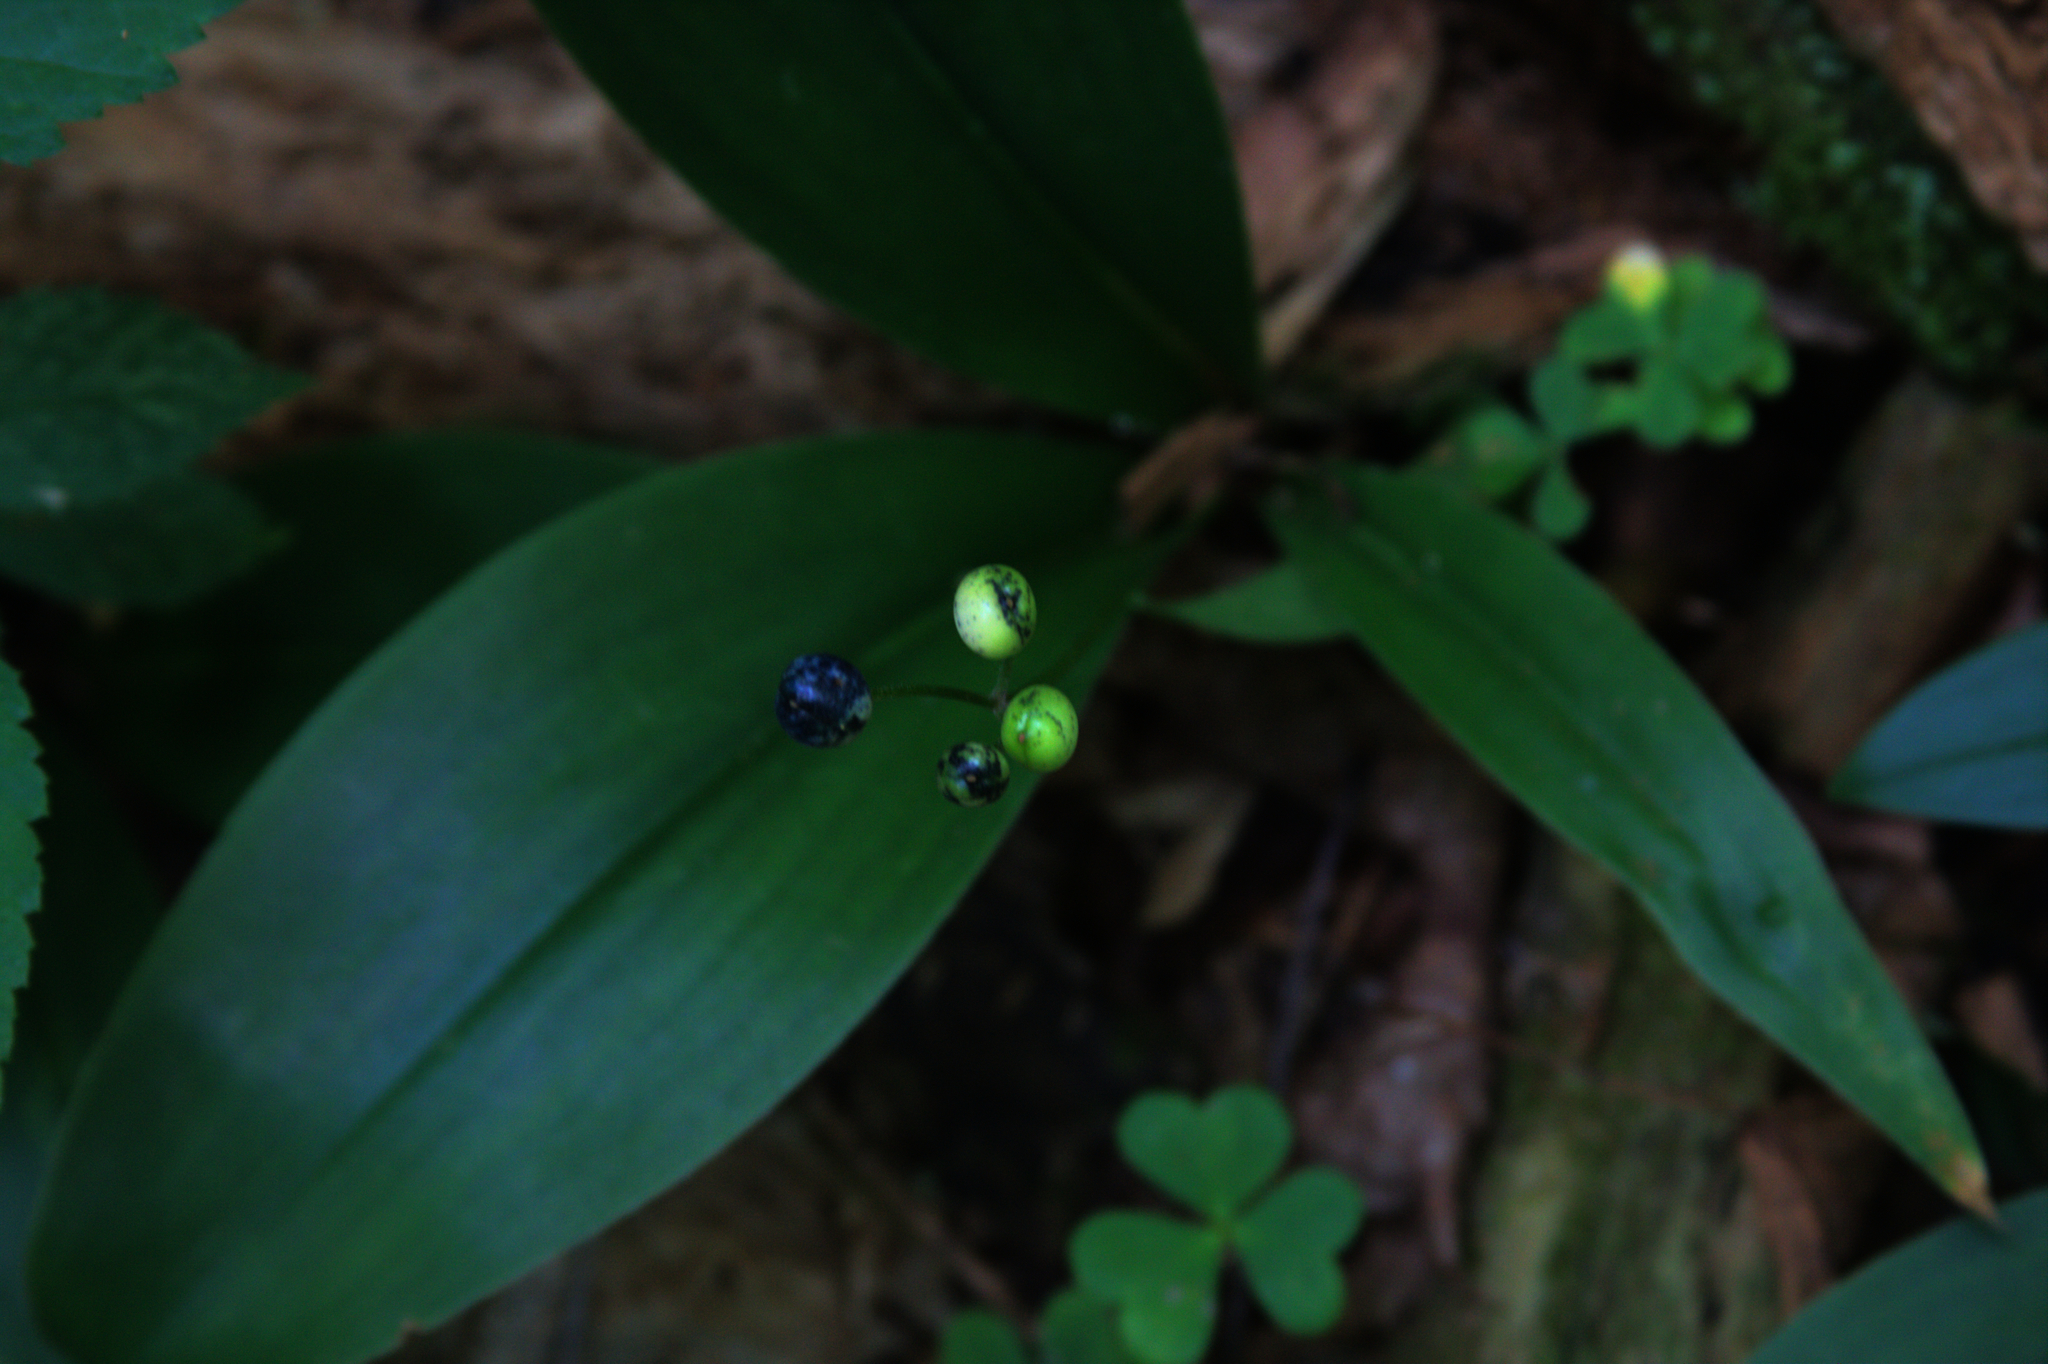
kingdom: Plantae
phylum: Tracheophyta
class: Liliopsida
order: Liliales
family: Liliaceae
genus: Clintonia
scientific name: Clintonia borealis
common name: Yellow clintonia
